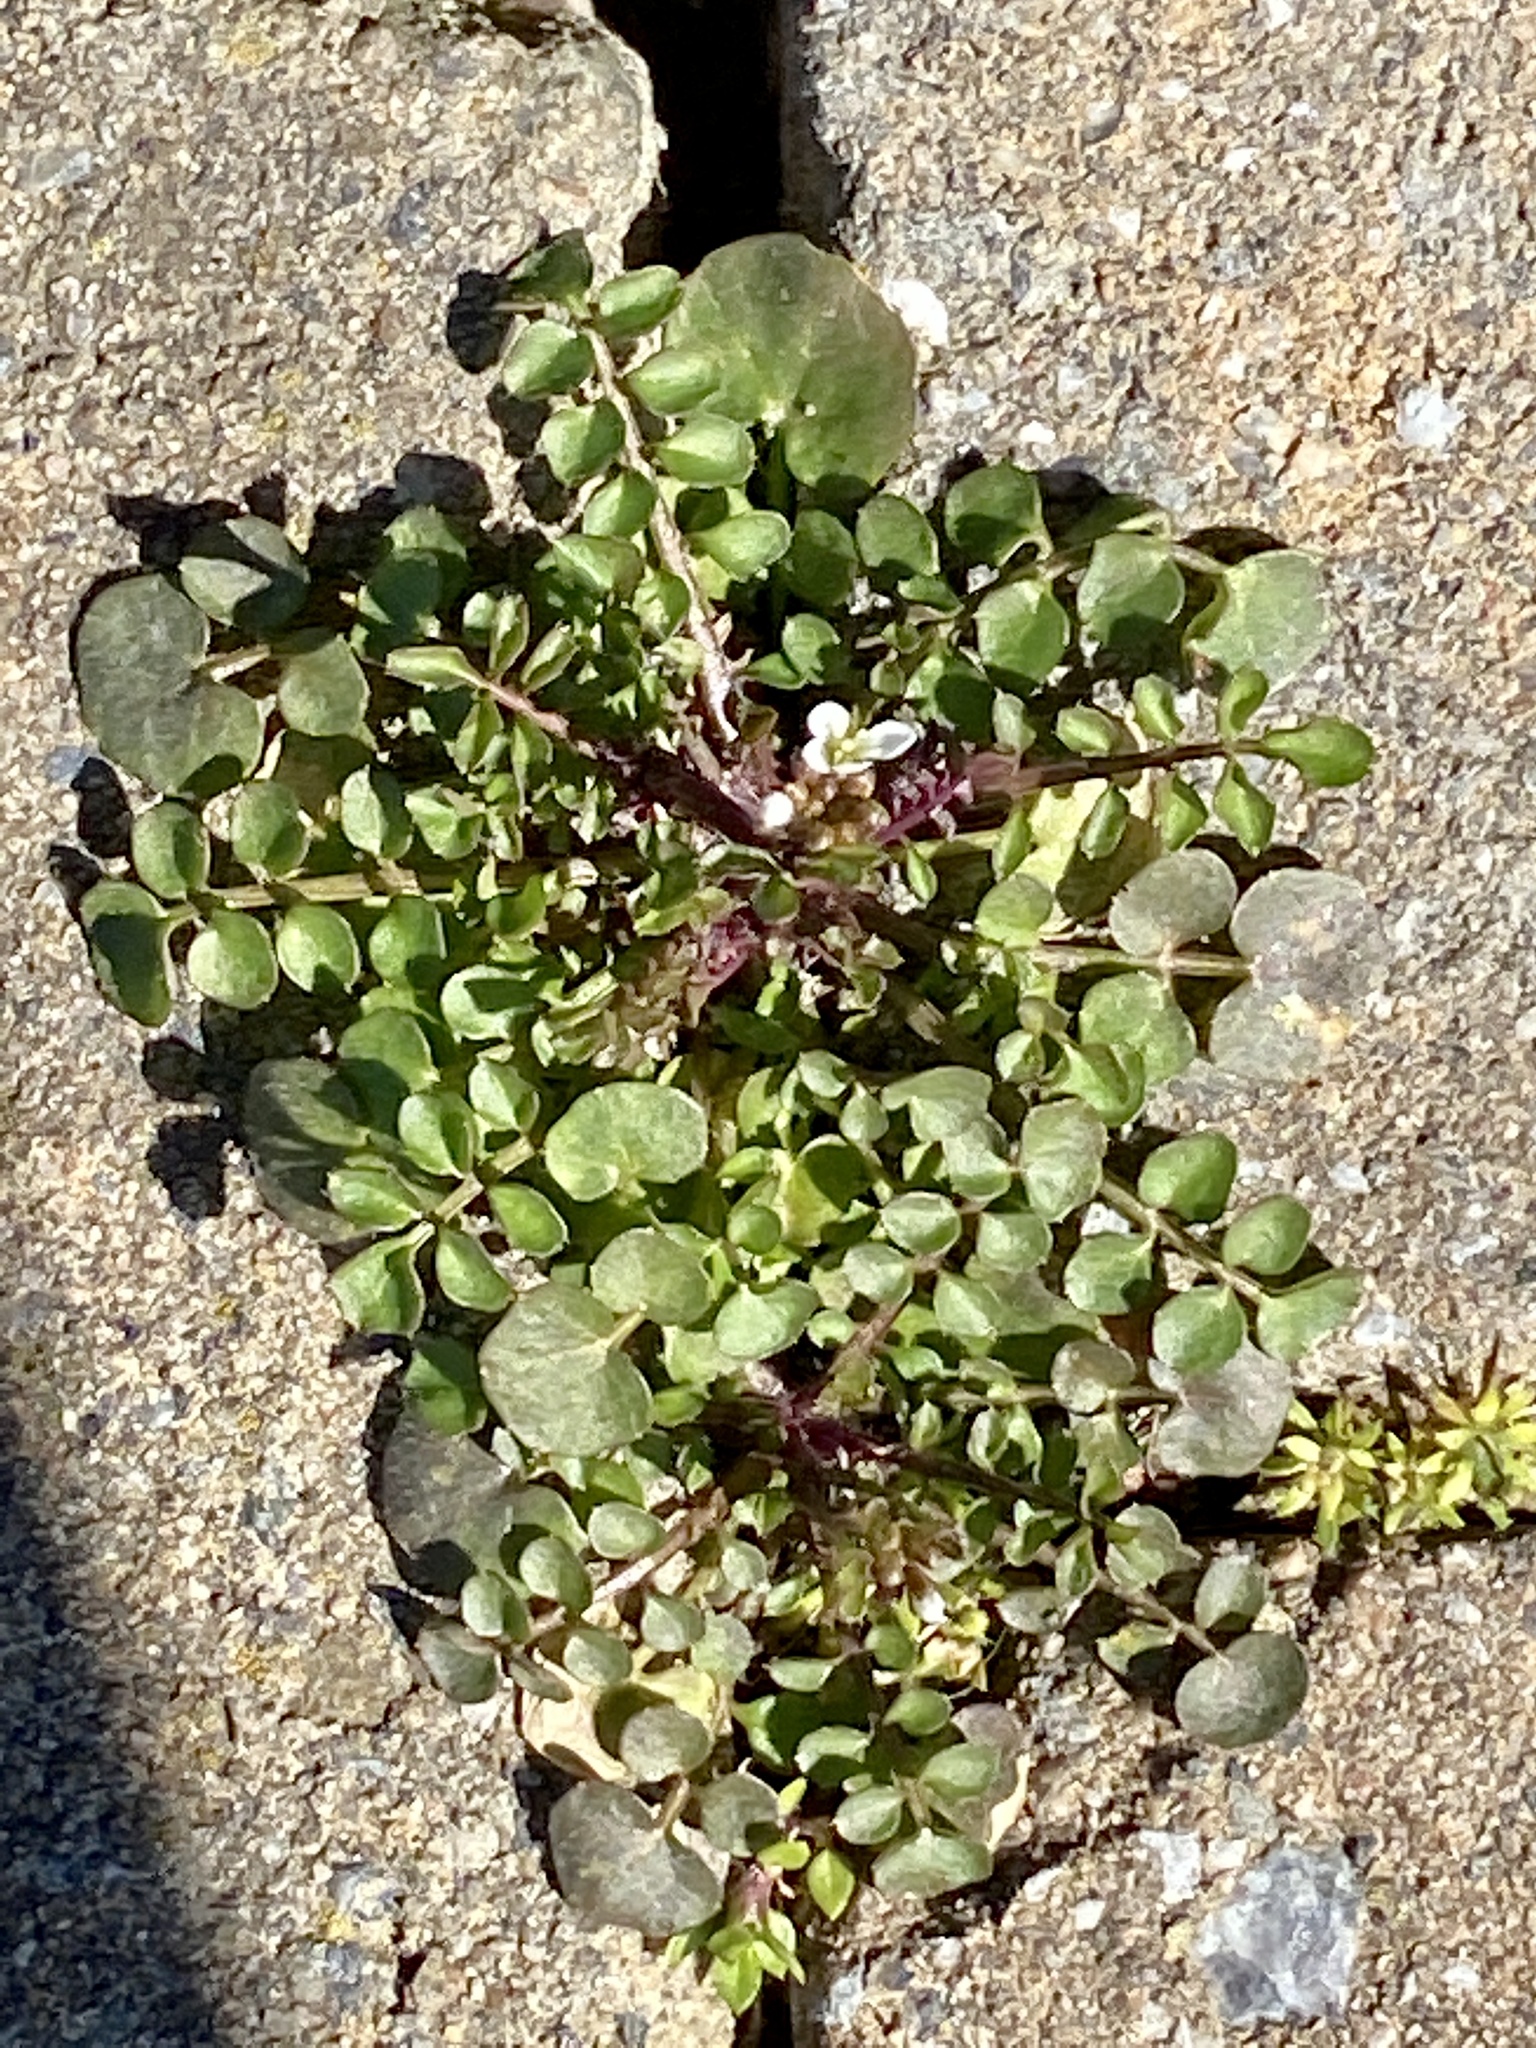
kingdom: Plantae
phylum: Tracheophyta
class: Magnoliopsida
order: Brassicales
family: Brassicaceae
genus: Cardamine
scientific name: Cardamine hirsuta
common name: Hairy bittercress
